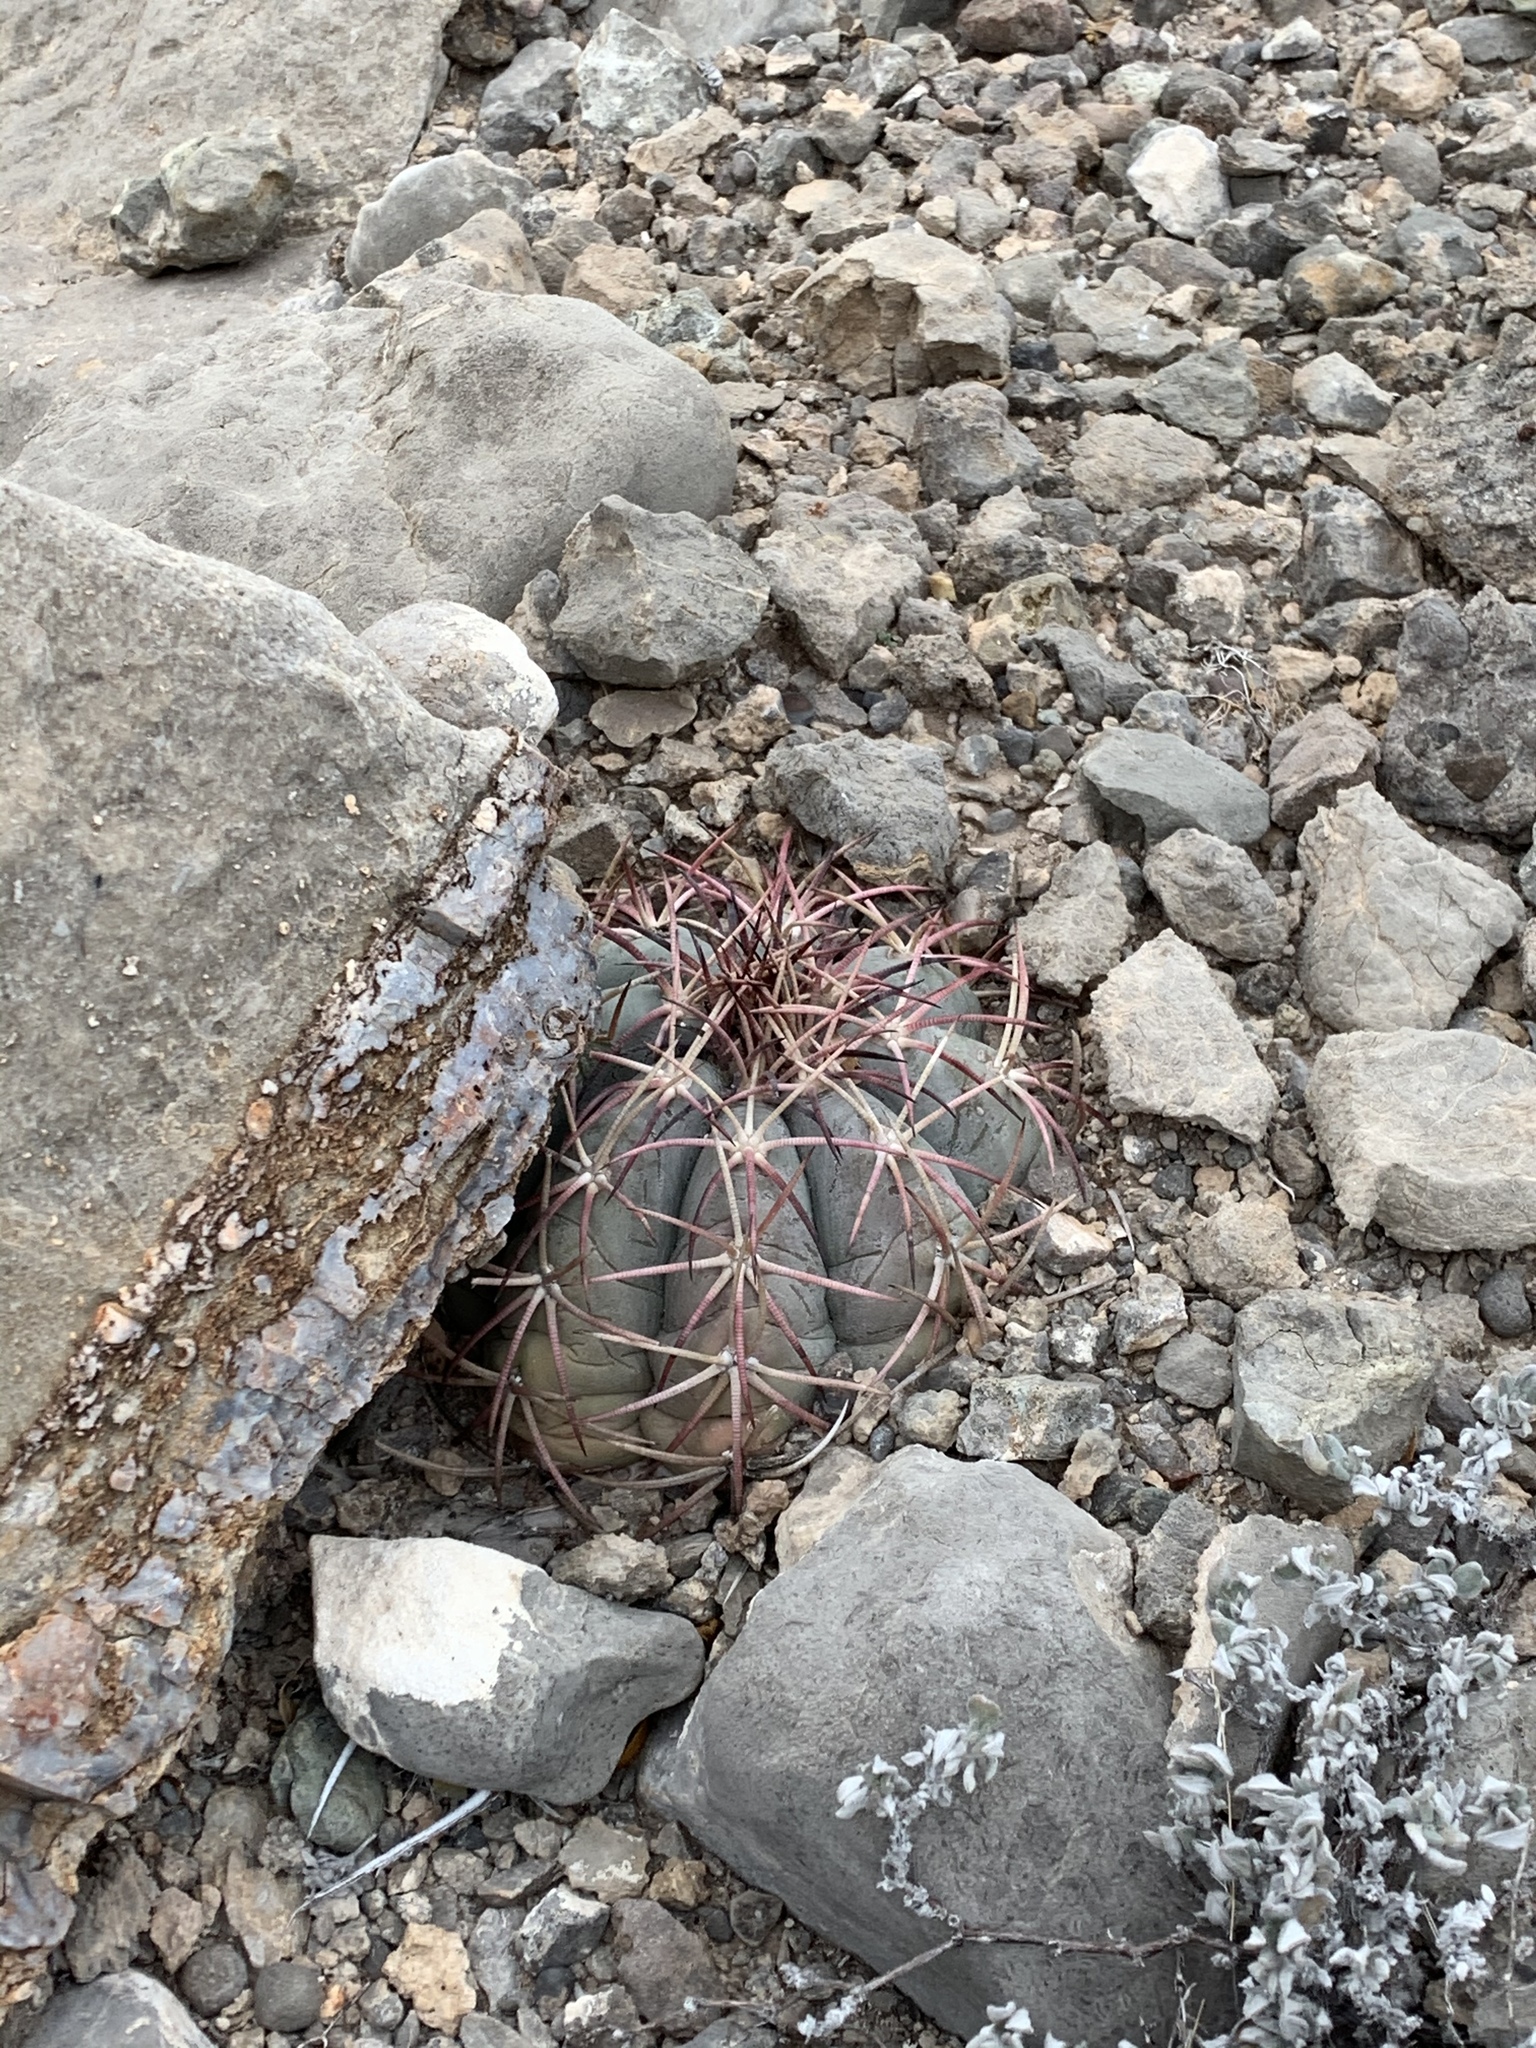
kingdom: Plantae
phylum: Tracheophyta
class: Magnoliopsida
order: Caryophyllales
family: Cactaceae
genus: Echinocactus
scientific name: Echinocactus horizonthalonius
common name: Devilshead
